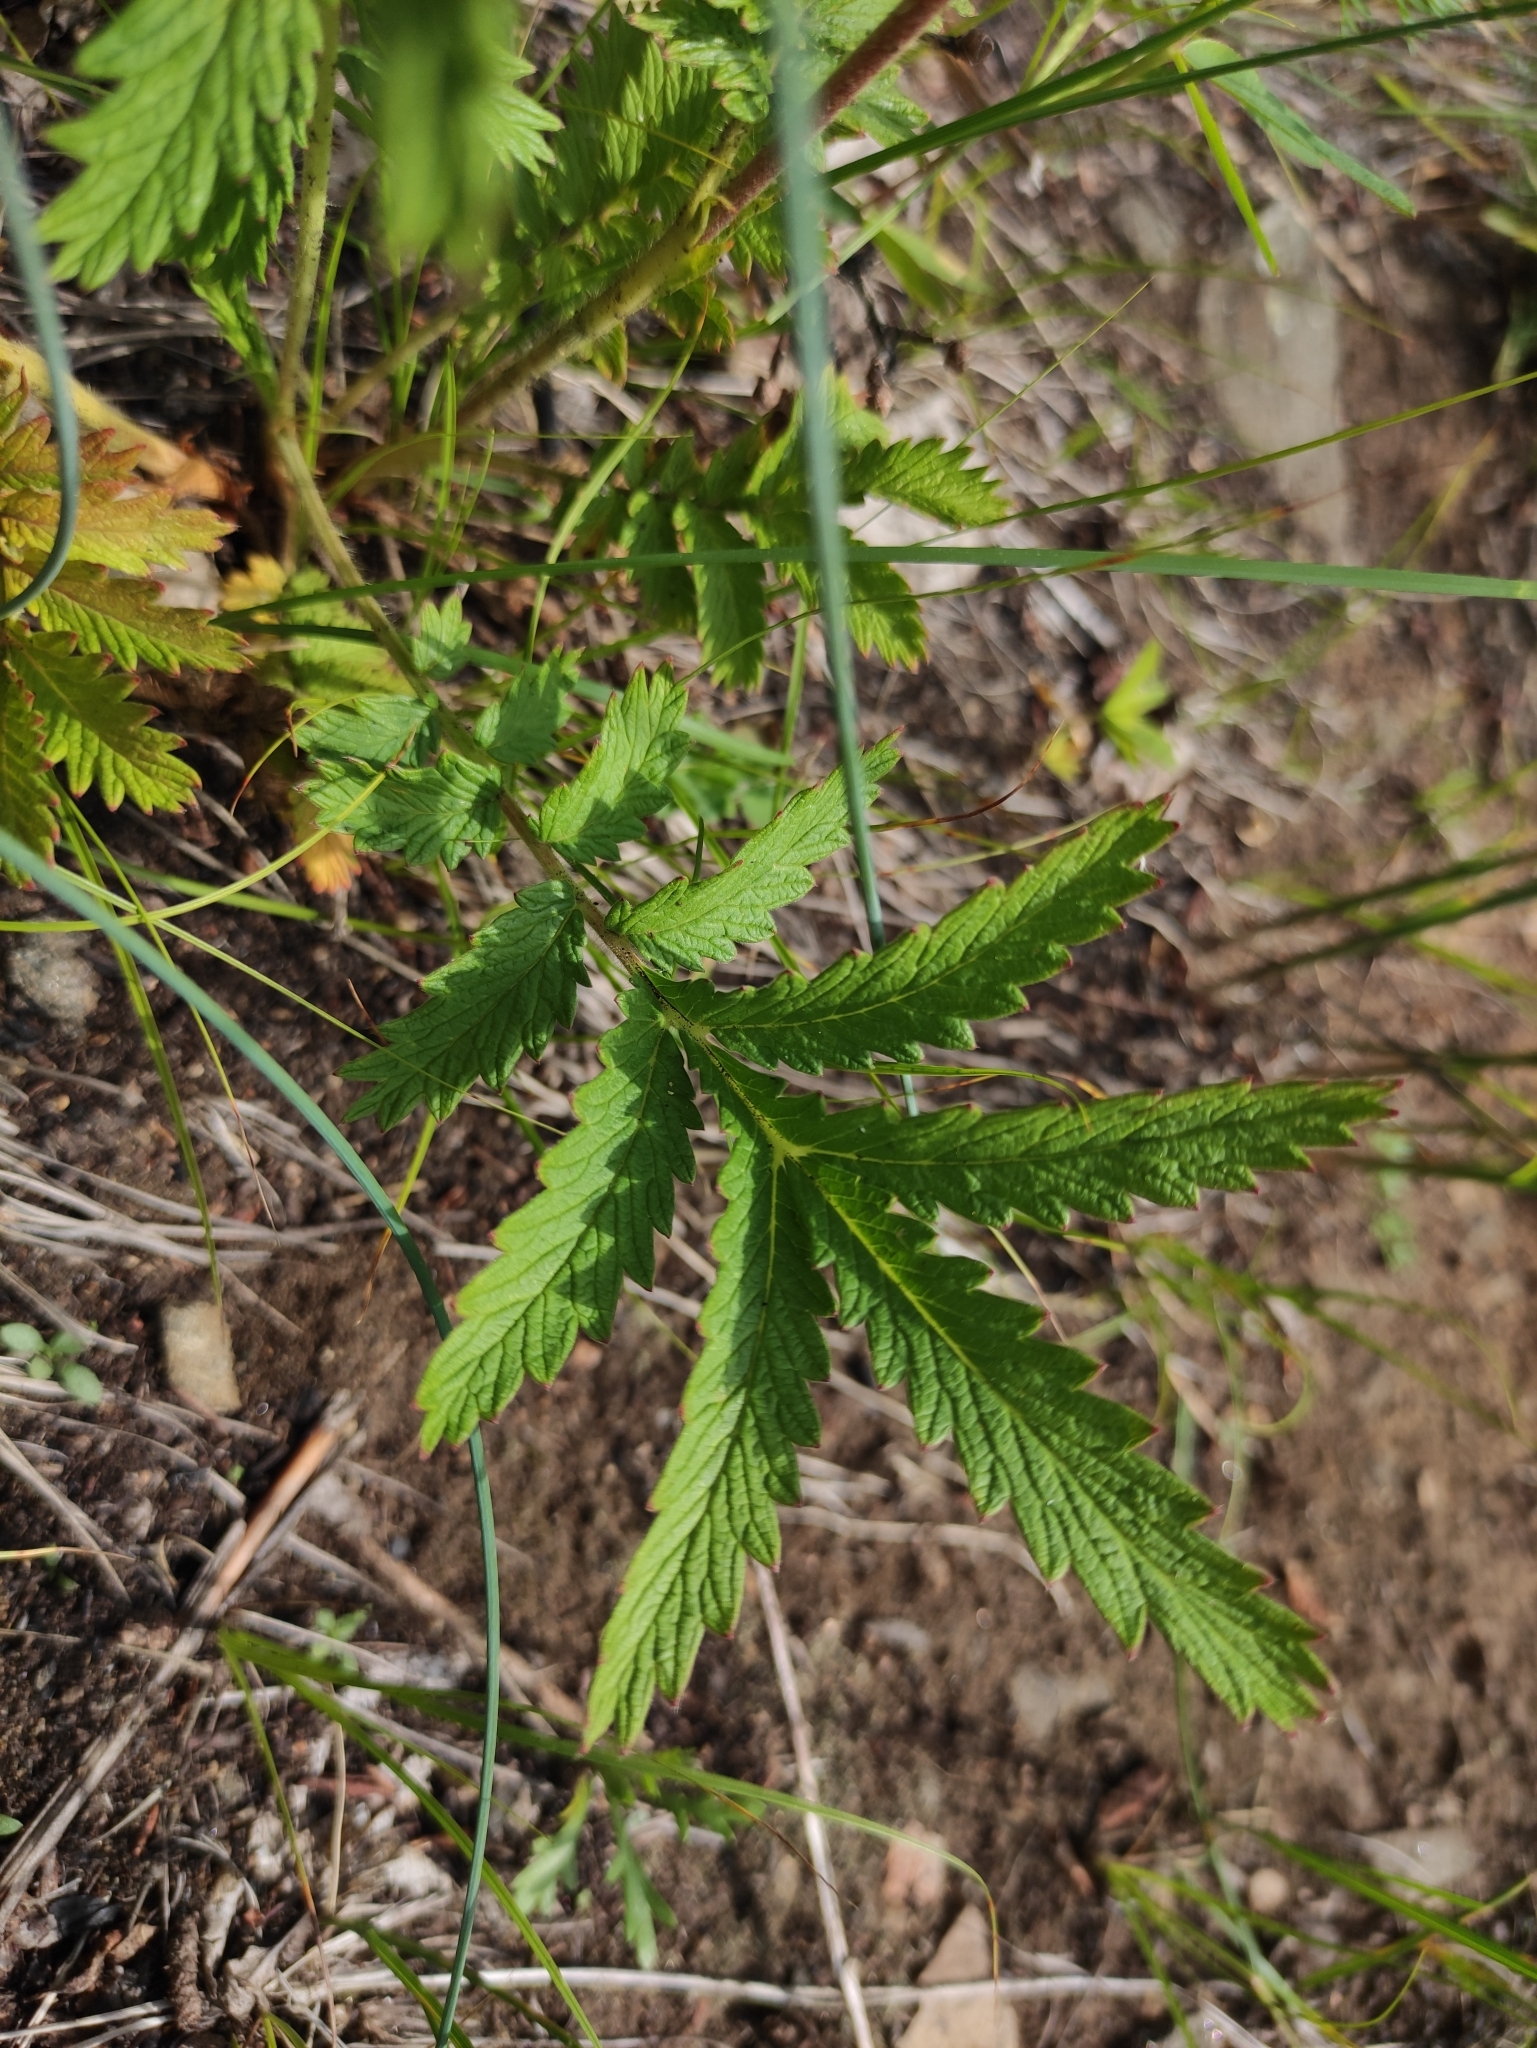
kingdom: Plantae
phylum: Tracheophyta
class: Magnoliopsida
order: Rosales
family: Rosaceae
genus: Potentilla
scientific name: Potentilla longifolia
